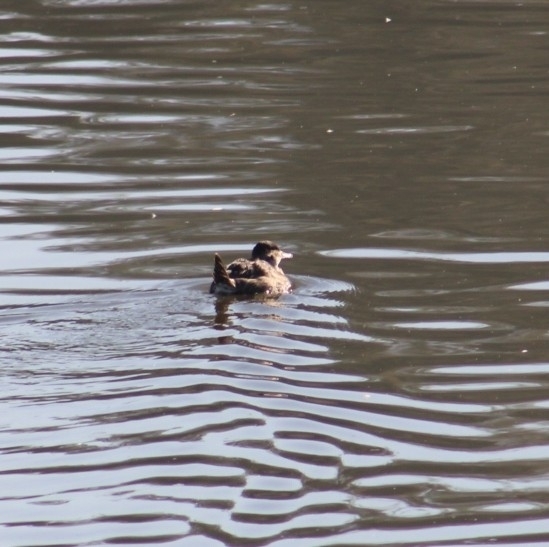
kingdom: Animalia
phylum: Chordata
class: Aves
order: Anseriformes
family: Anatidae
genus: Oxyura
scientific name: Oxyura jamaicensis
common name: Ruddy duck
